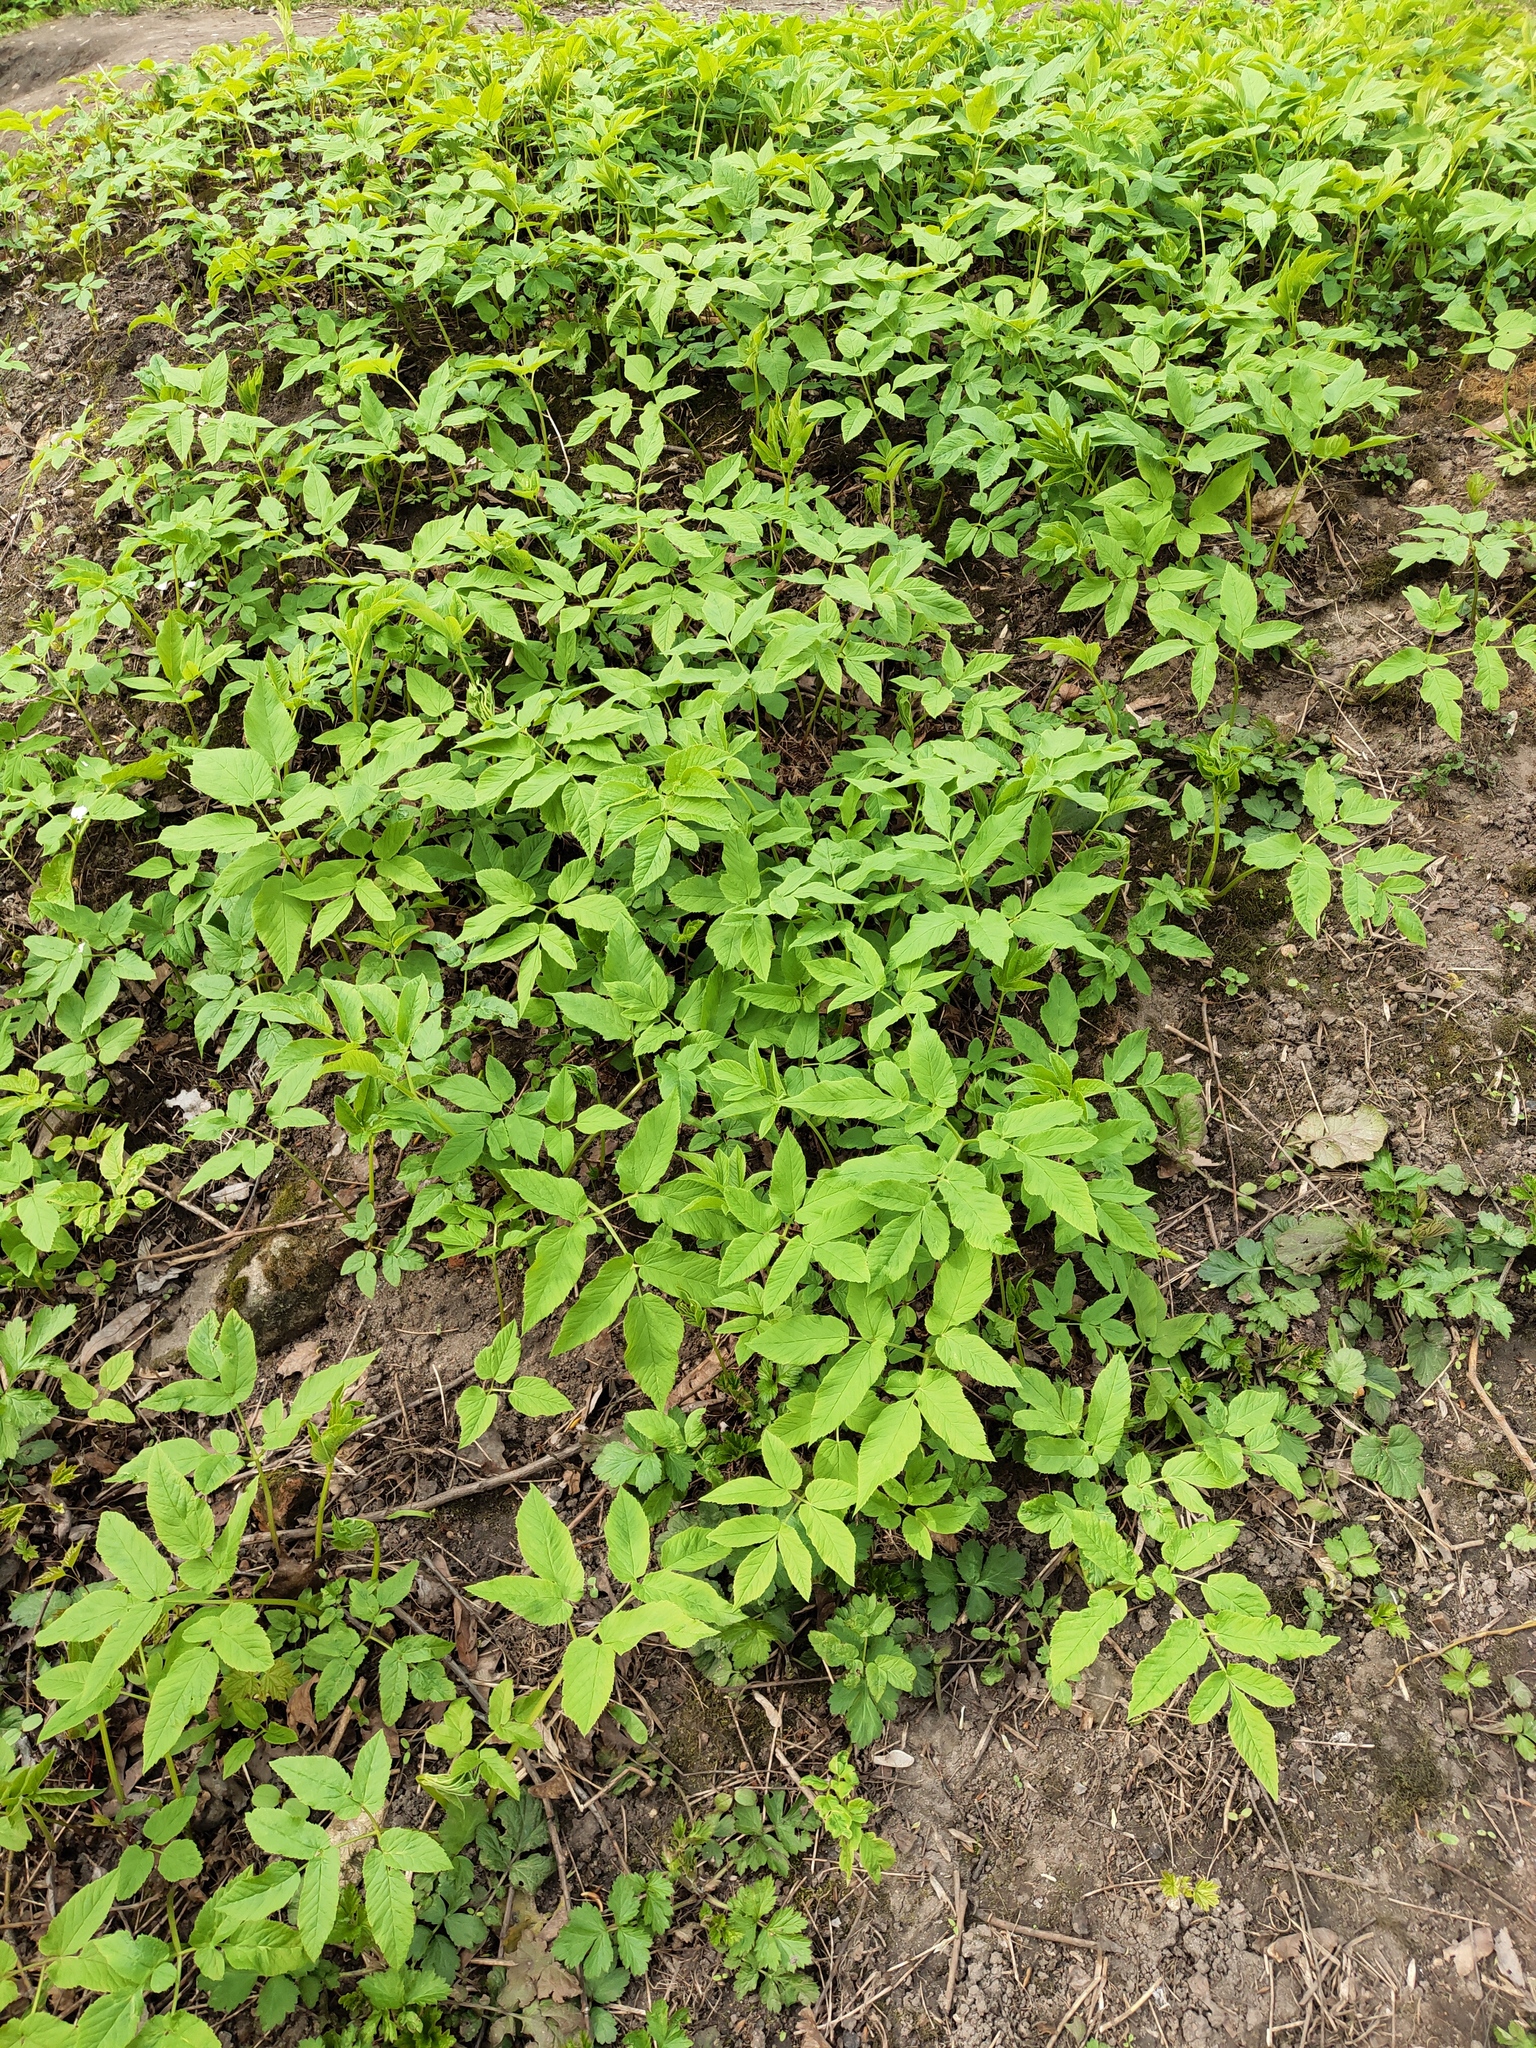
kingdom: Plantae
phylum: Tracheophyta
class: Magnoliopsida
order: Apiales
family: Apiaceae
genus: Aegopodium
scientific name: Aegopodium podagraria
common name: Ground-elder
